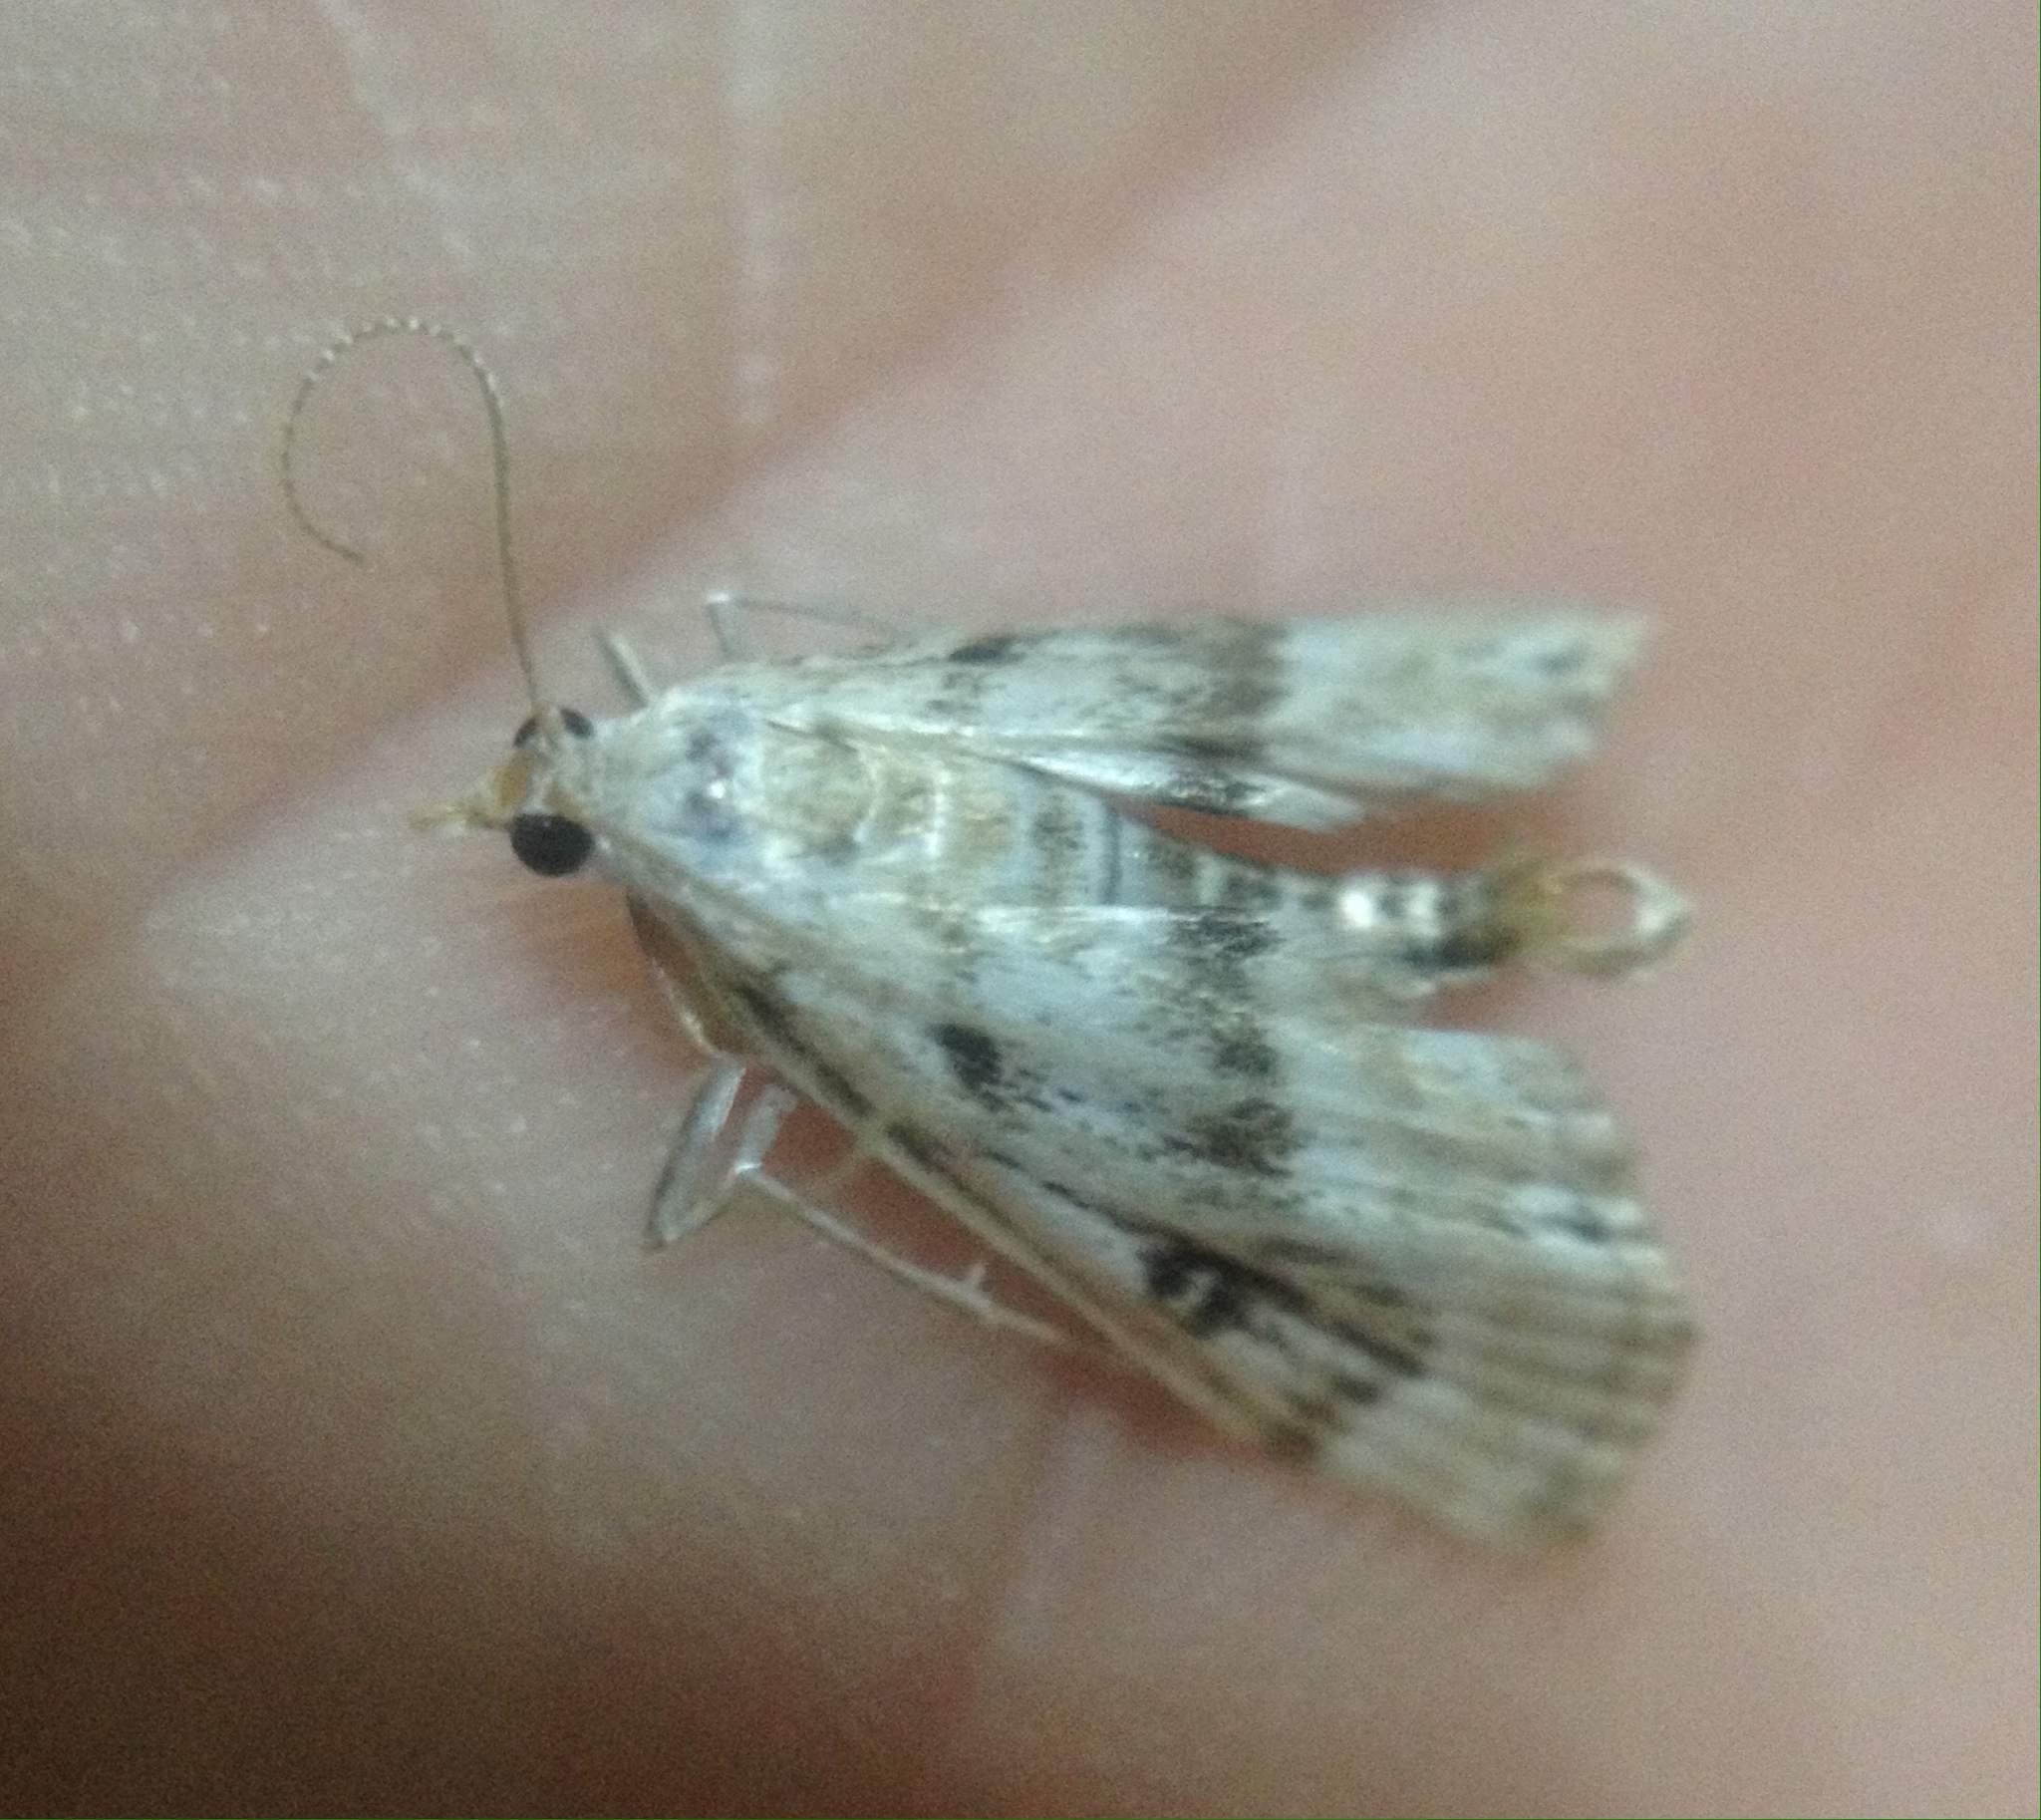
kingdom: Animalia
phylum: Arthropoda
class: Insecta
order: Lepidoptera
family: Crambidae
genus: Parapoynx
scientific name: Parapoynx stratiotata
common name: Ringed china-mark
